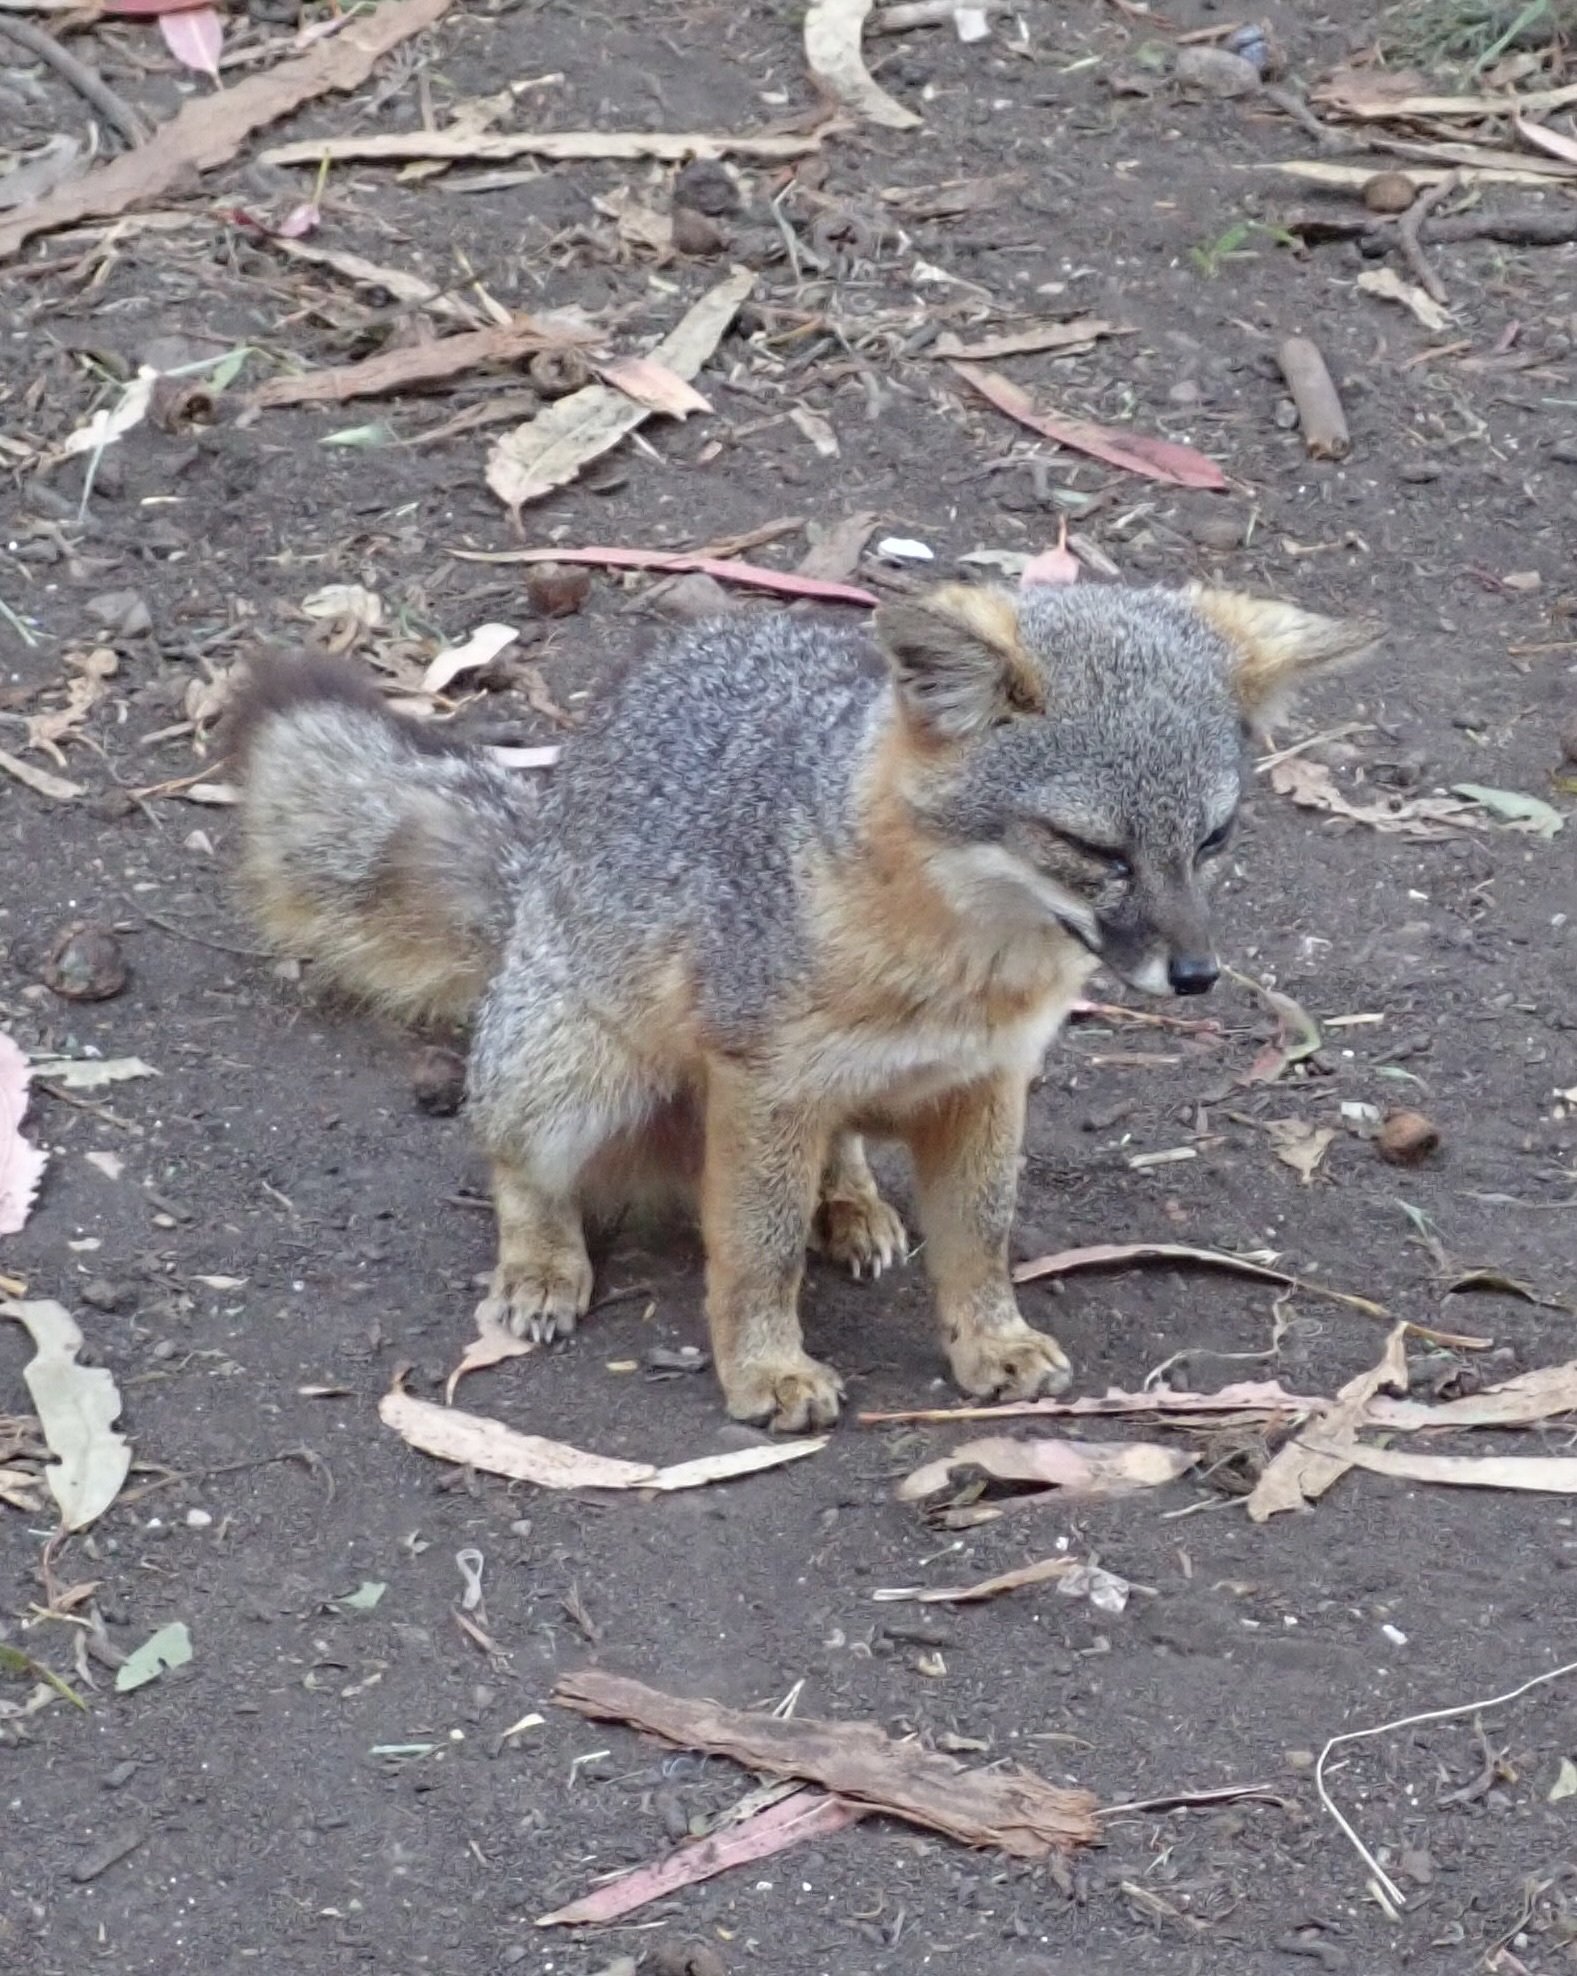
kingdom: Animalia
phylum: Chordata
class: Mammalia
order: Carnivora
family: Canidae
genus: Urocyon
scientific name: Urocyon littoralis
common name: Island gray fox
